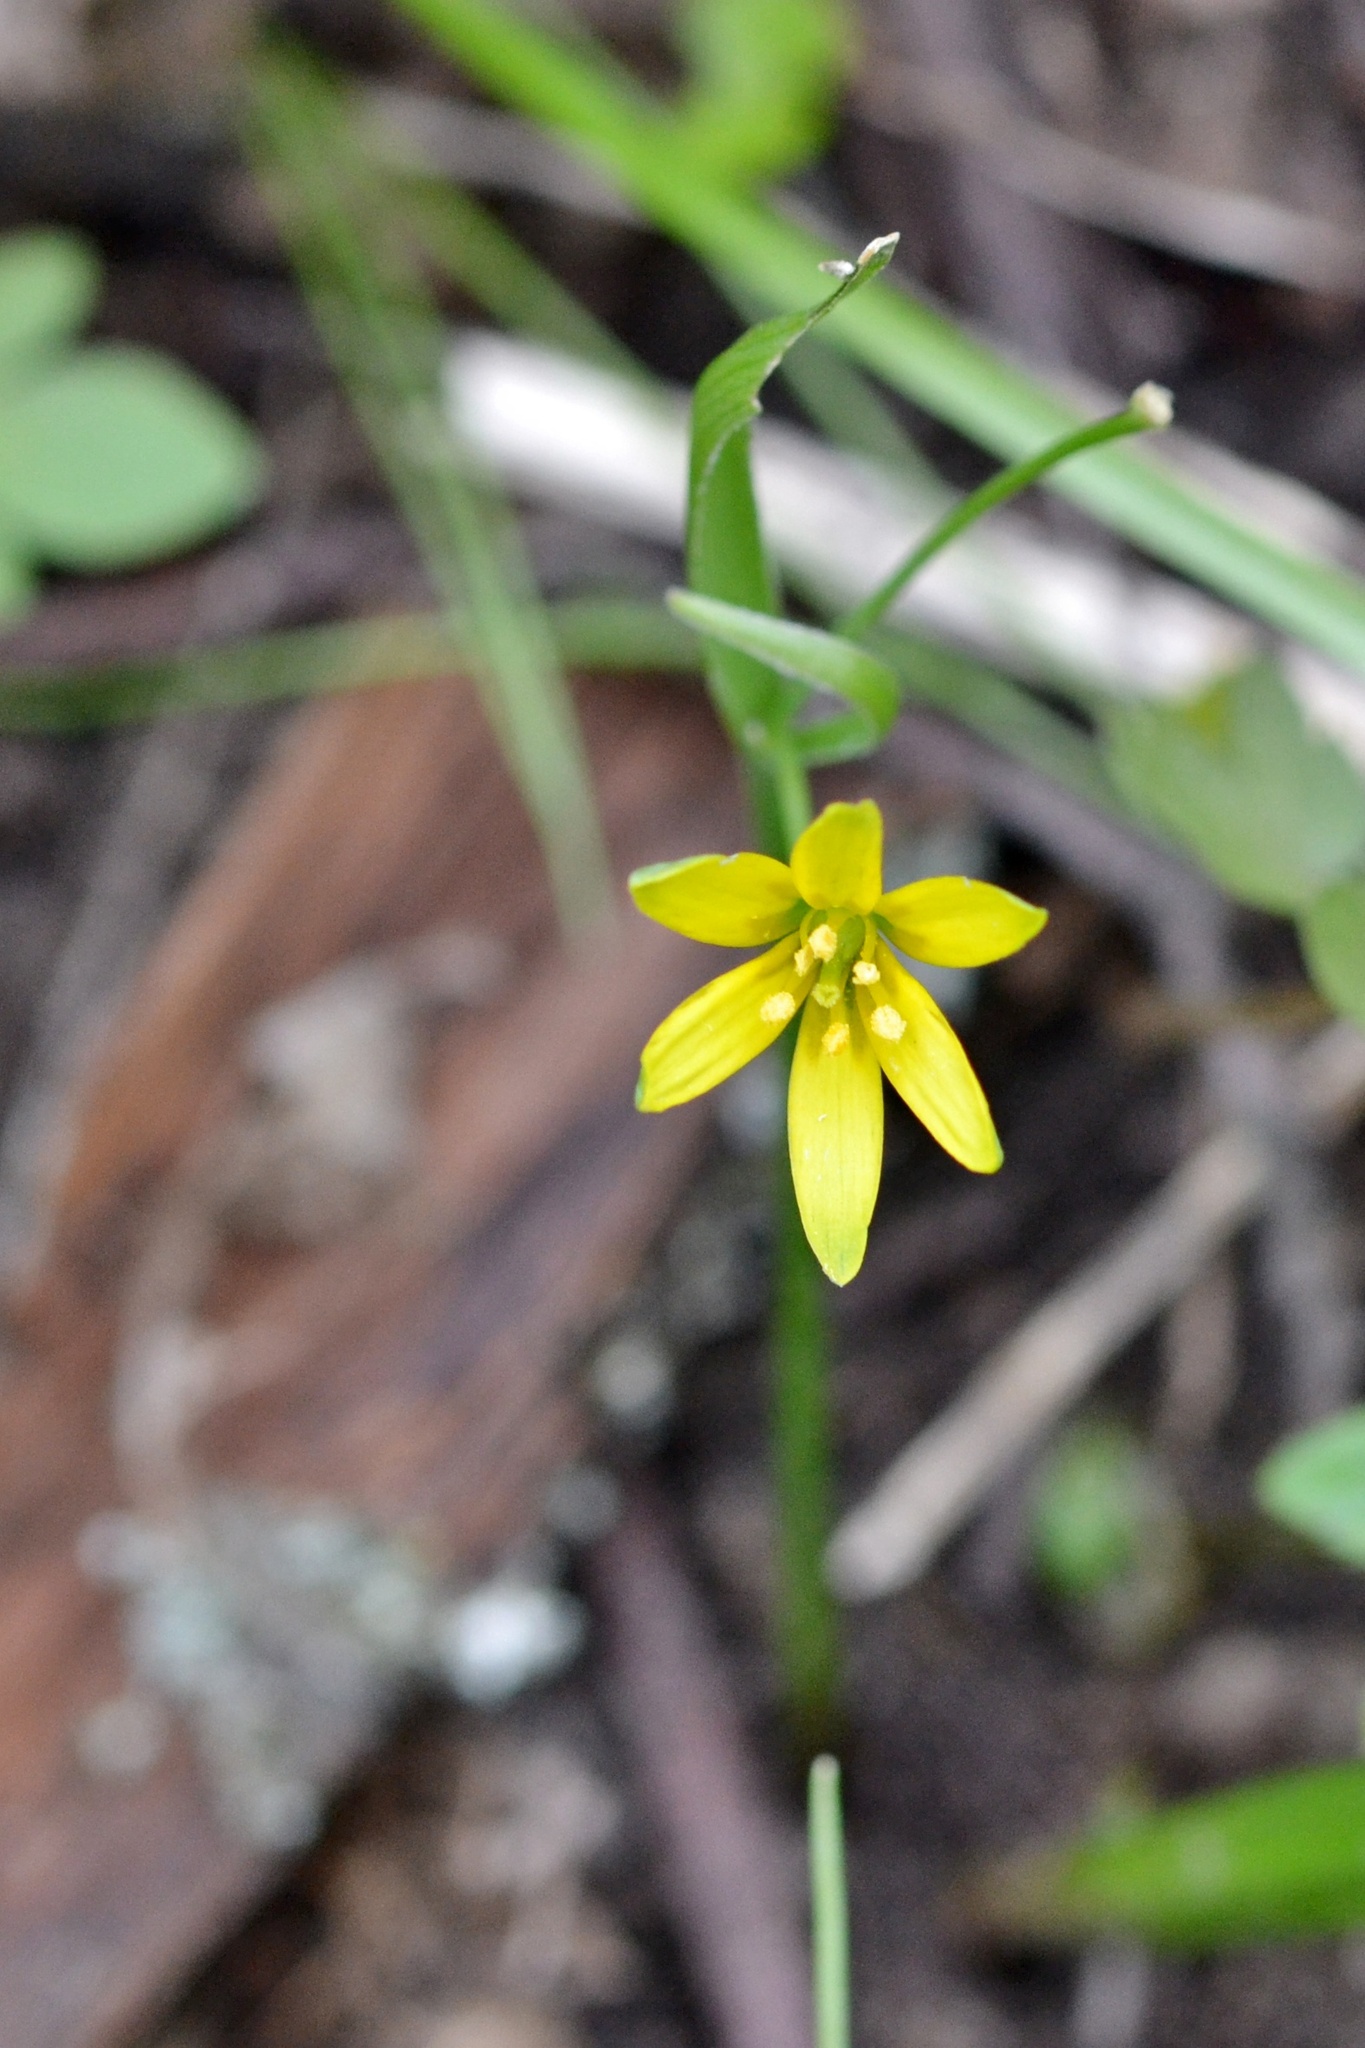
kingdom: Plantae
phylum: Tracheophyta
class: Liliopsida
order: Liliales
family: Liliaceae
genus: Gagea
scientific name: Gagea lutea
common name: Yellow star-of-bethlehem
